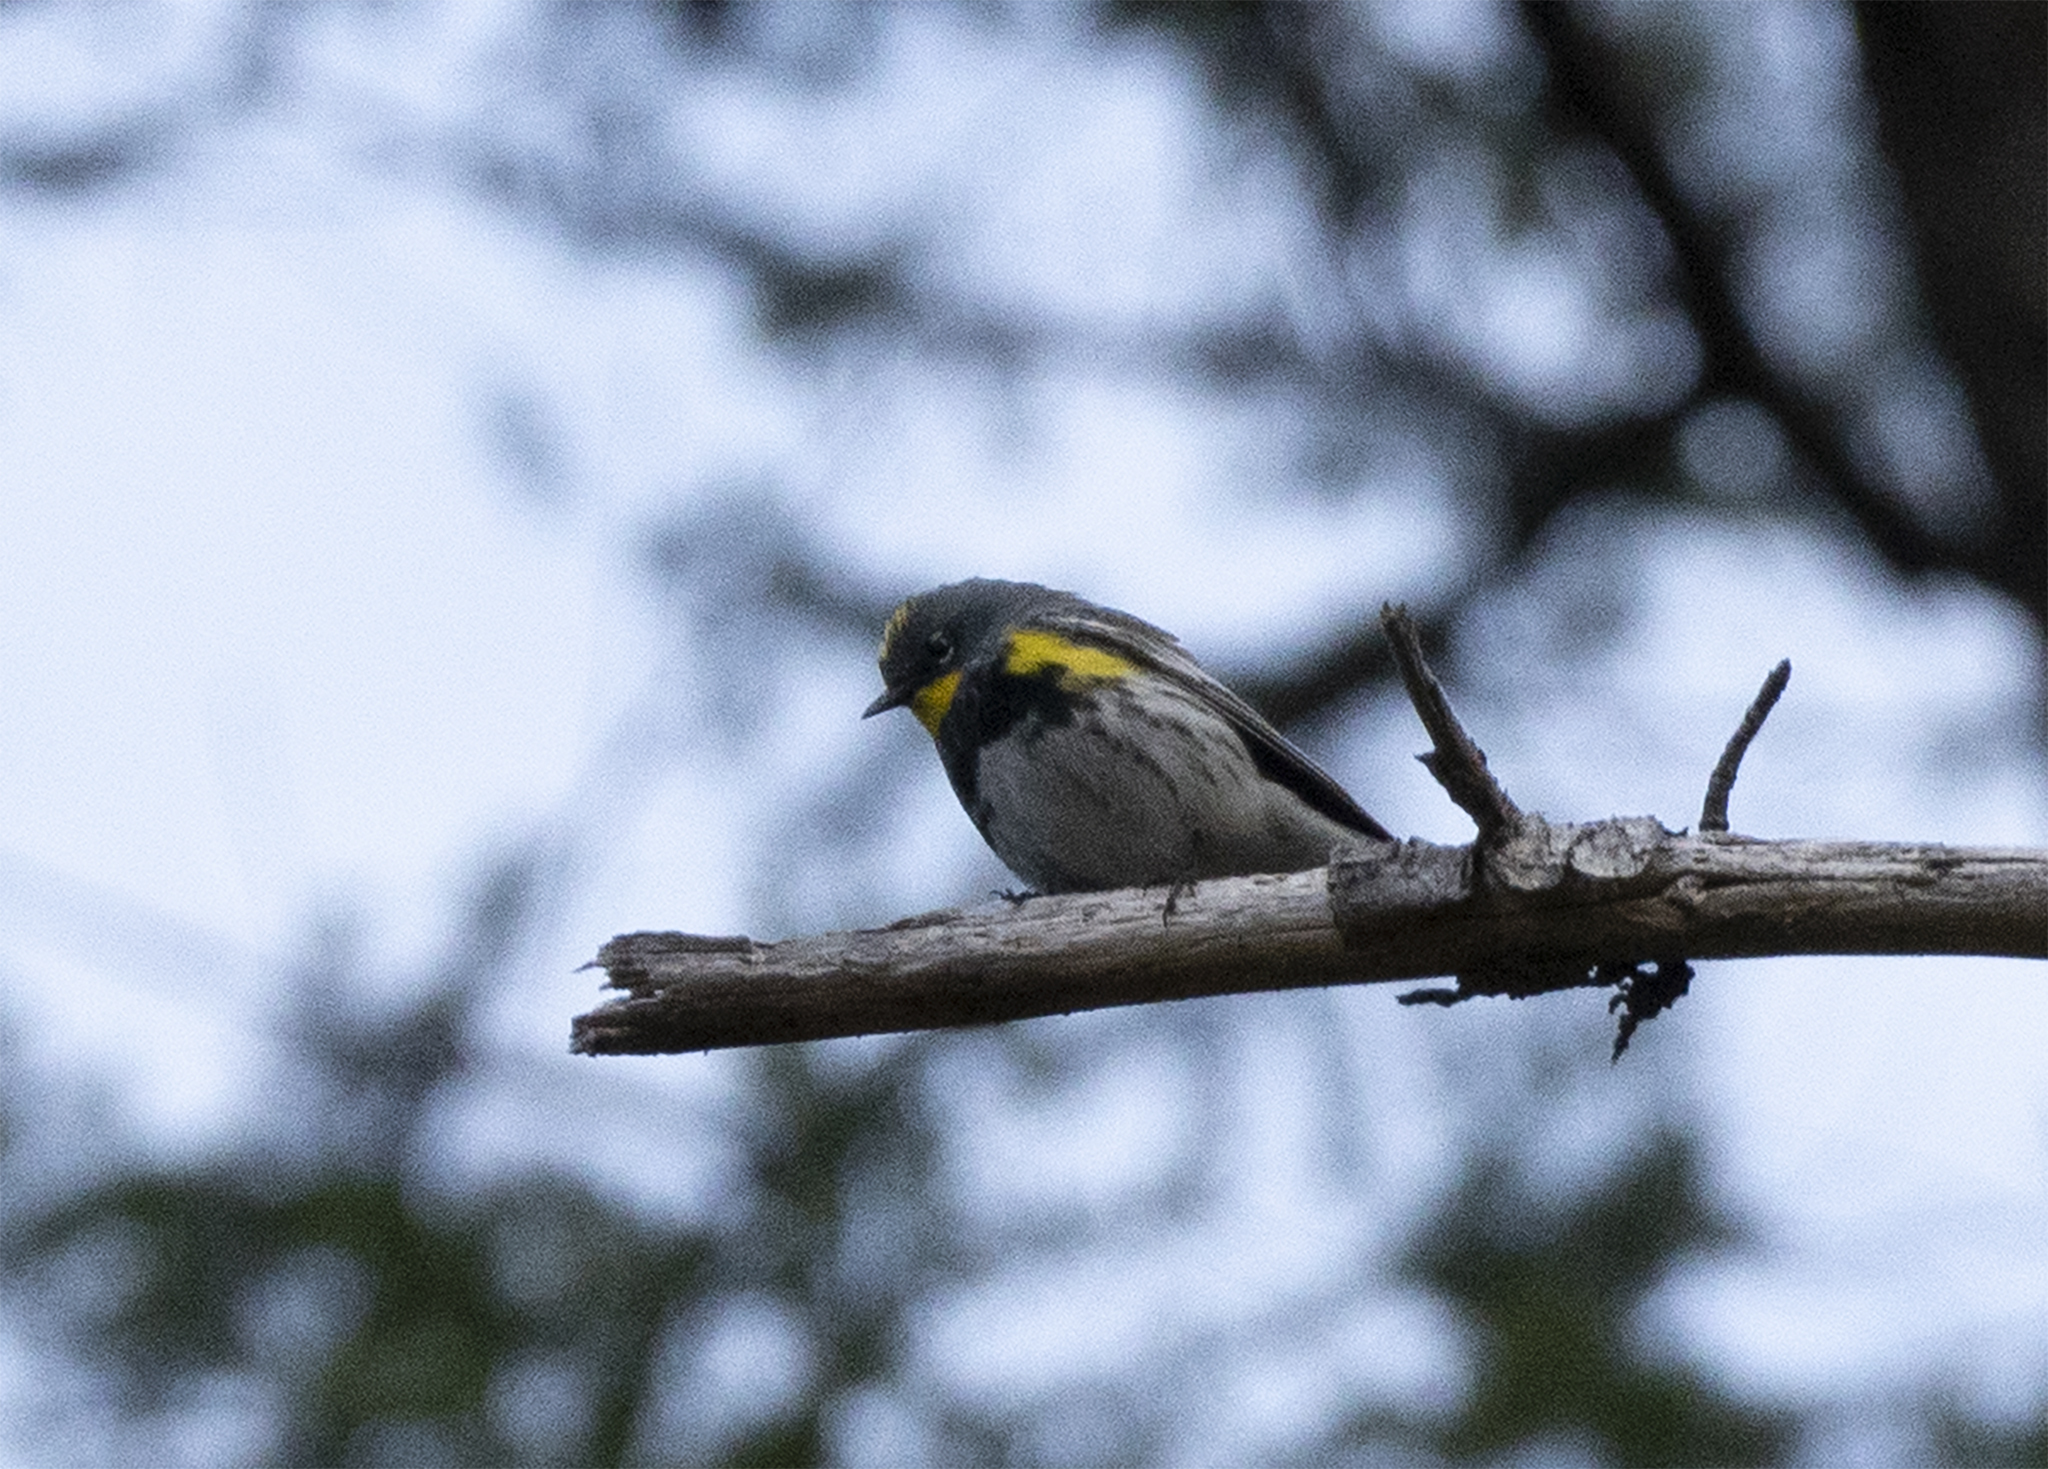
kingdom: Animalia
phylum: Chordata
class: Aves
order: Passeriformes
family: Parulidae
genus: Setophaga
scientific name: Setophaga auduboni
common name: Audubon's warbler
